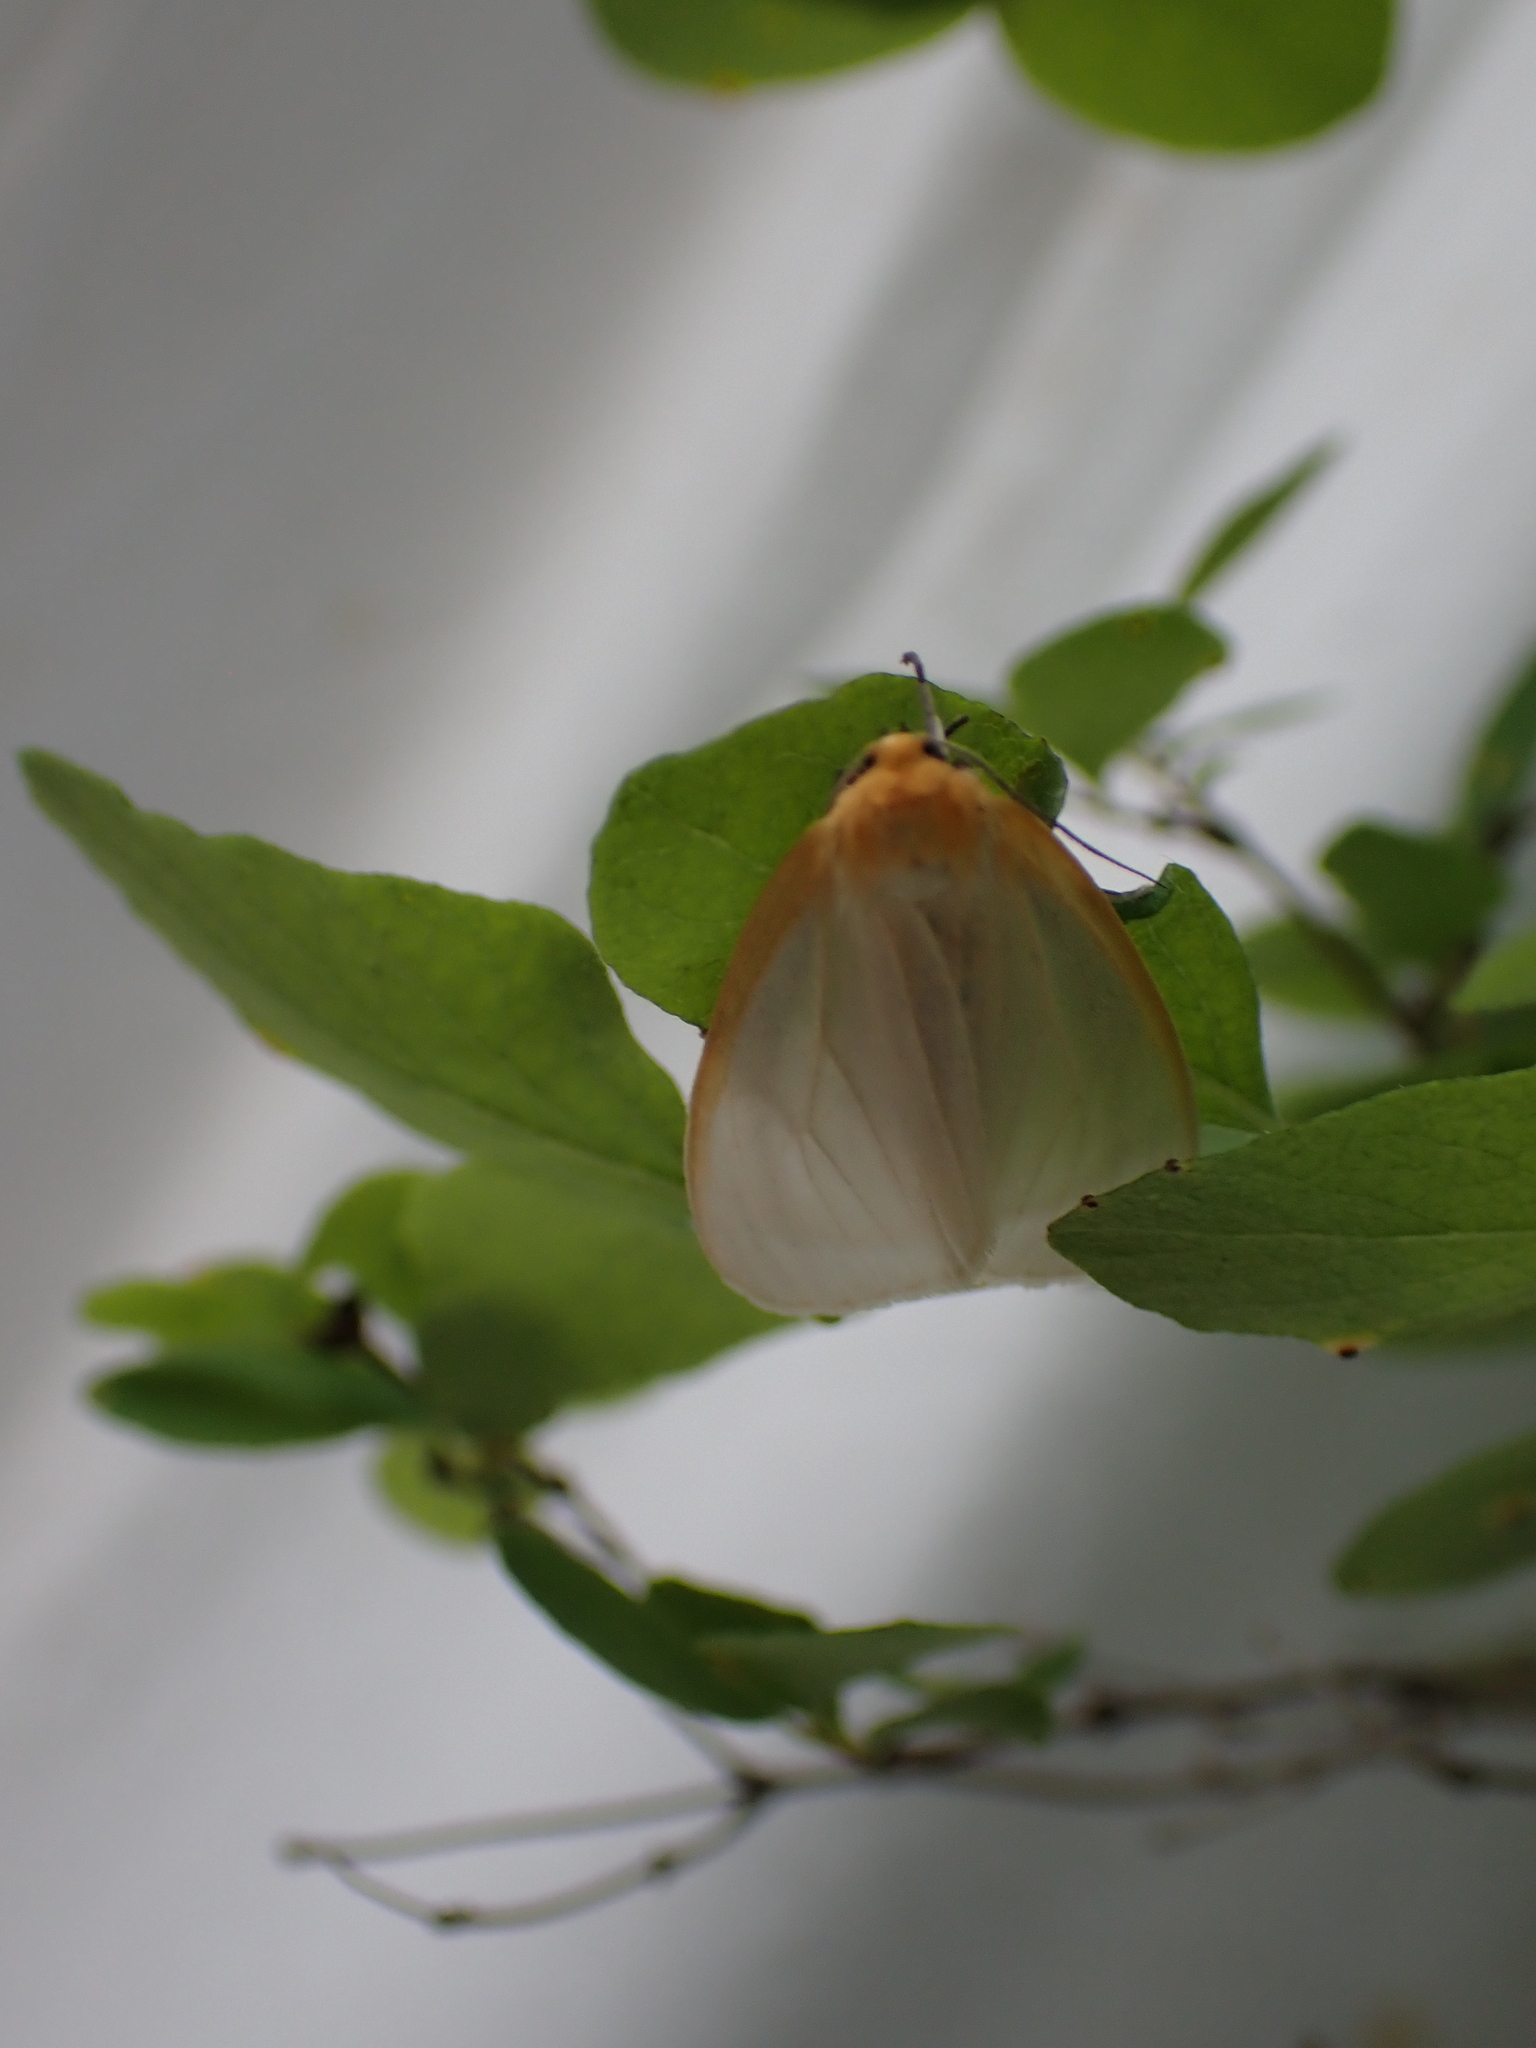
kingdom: Animalia
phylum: Arthropoda
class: Insecta
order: Lepidoptera
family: Erebidae
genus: Cycnia
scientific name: Cycnia tenera
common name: Delicate cycnia moth
